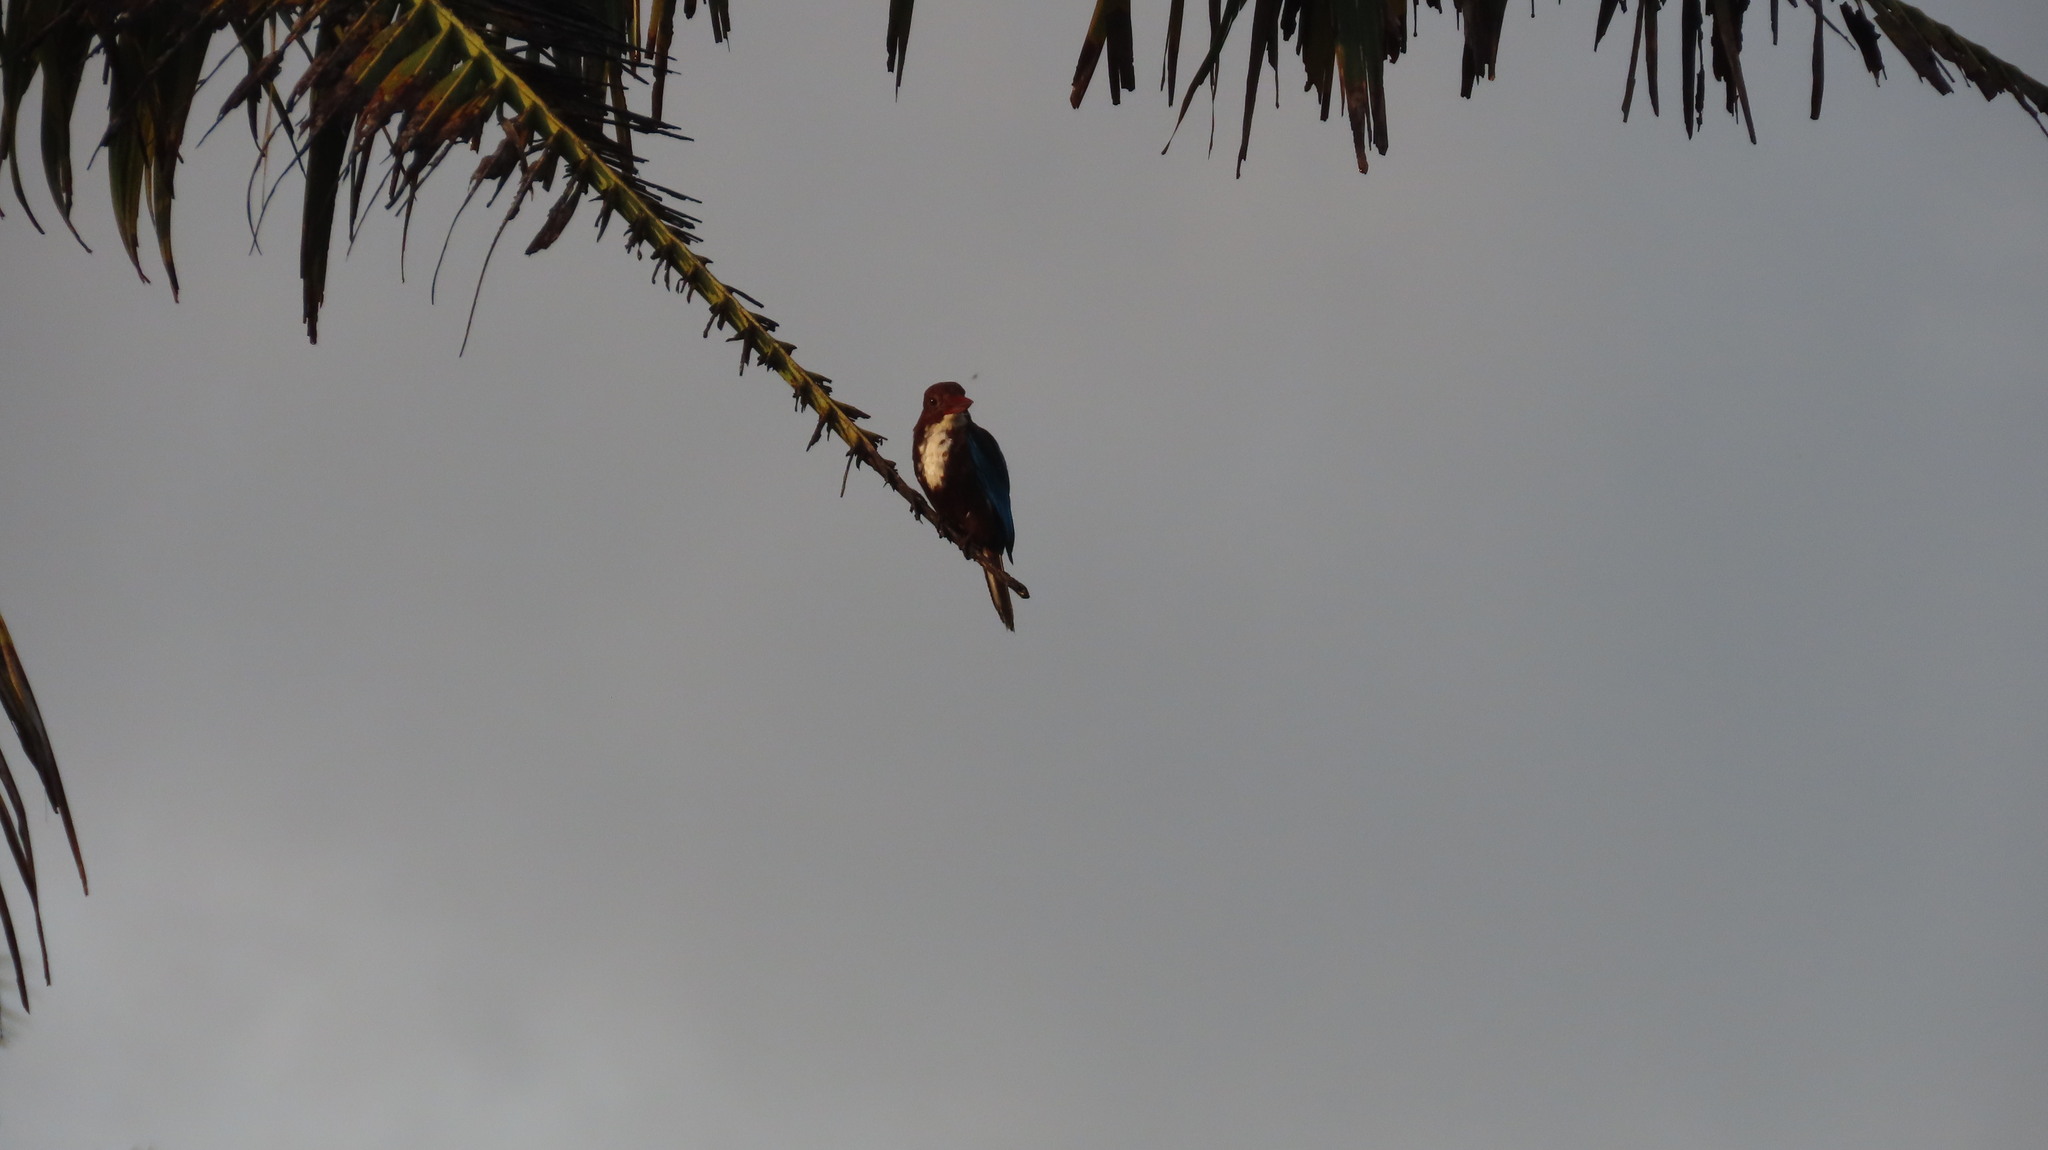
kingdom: Animalia
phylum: Chordata
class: Aves
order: Coraciiformes
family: Alcedinidae
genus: Halcyon
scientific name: Halcyon smyrnensis
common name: White-throated kingfisher
